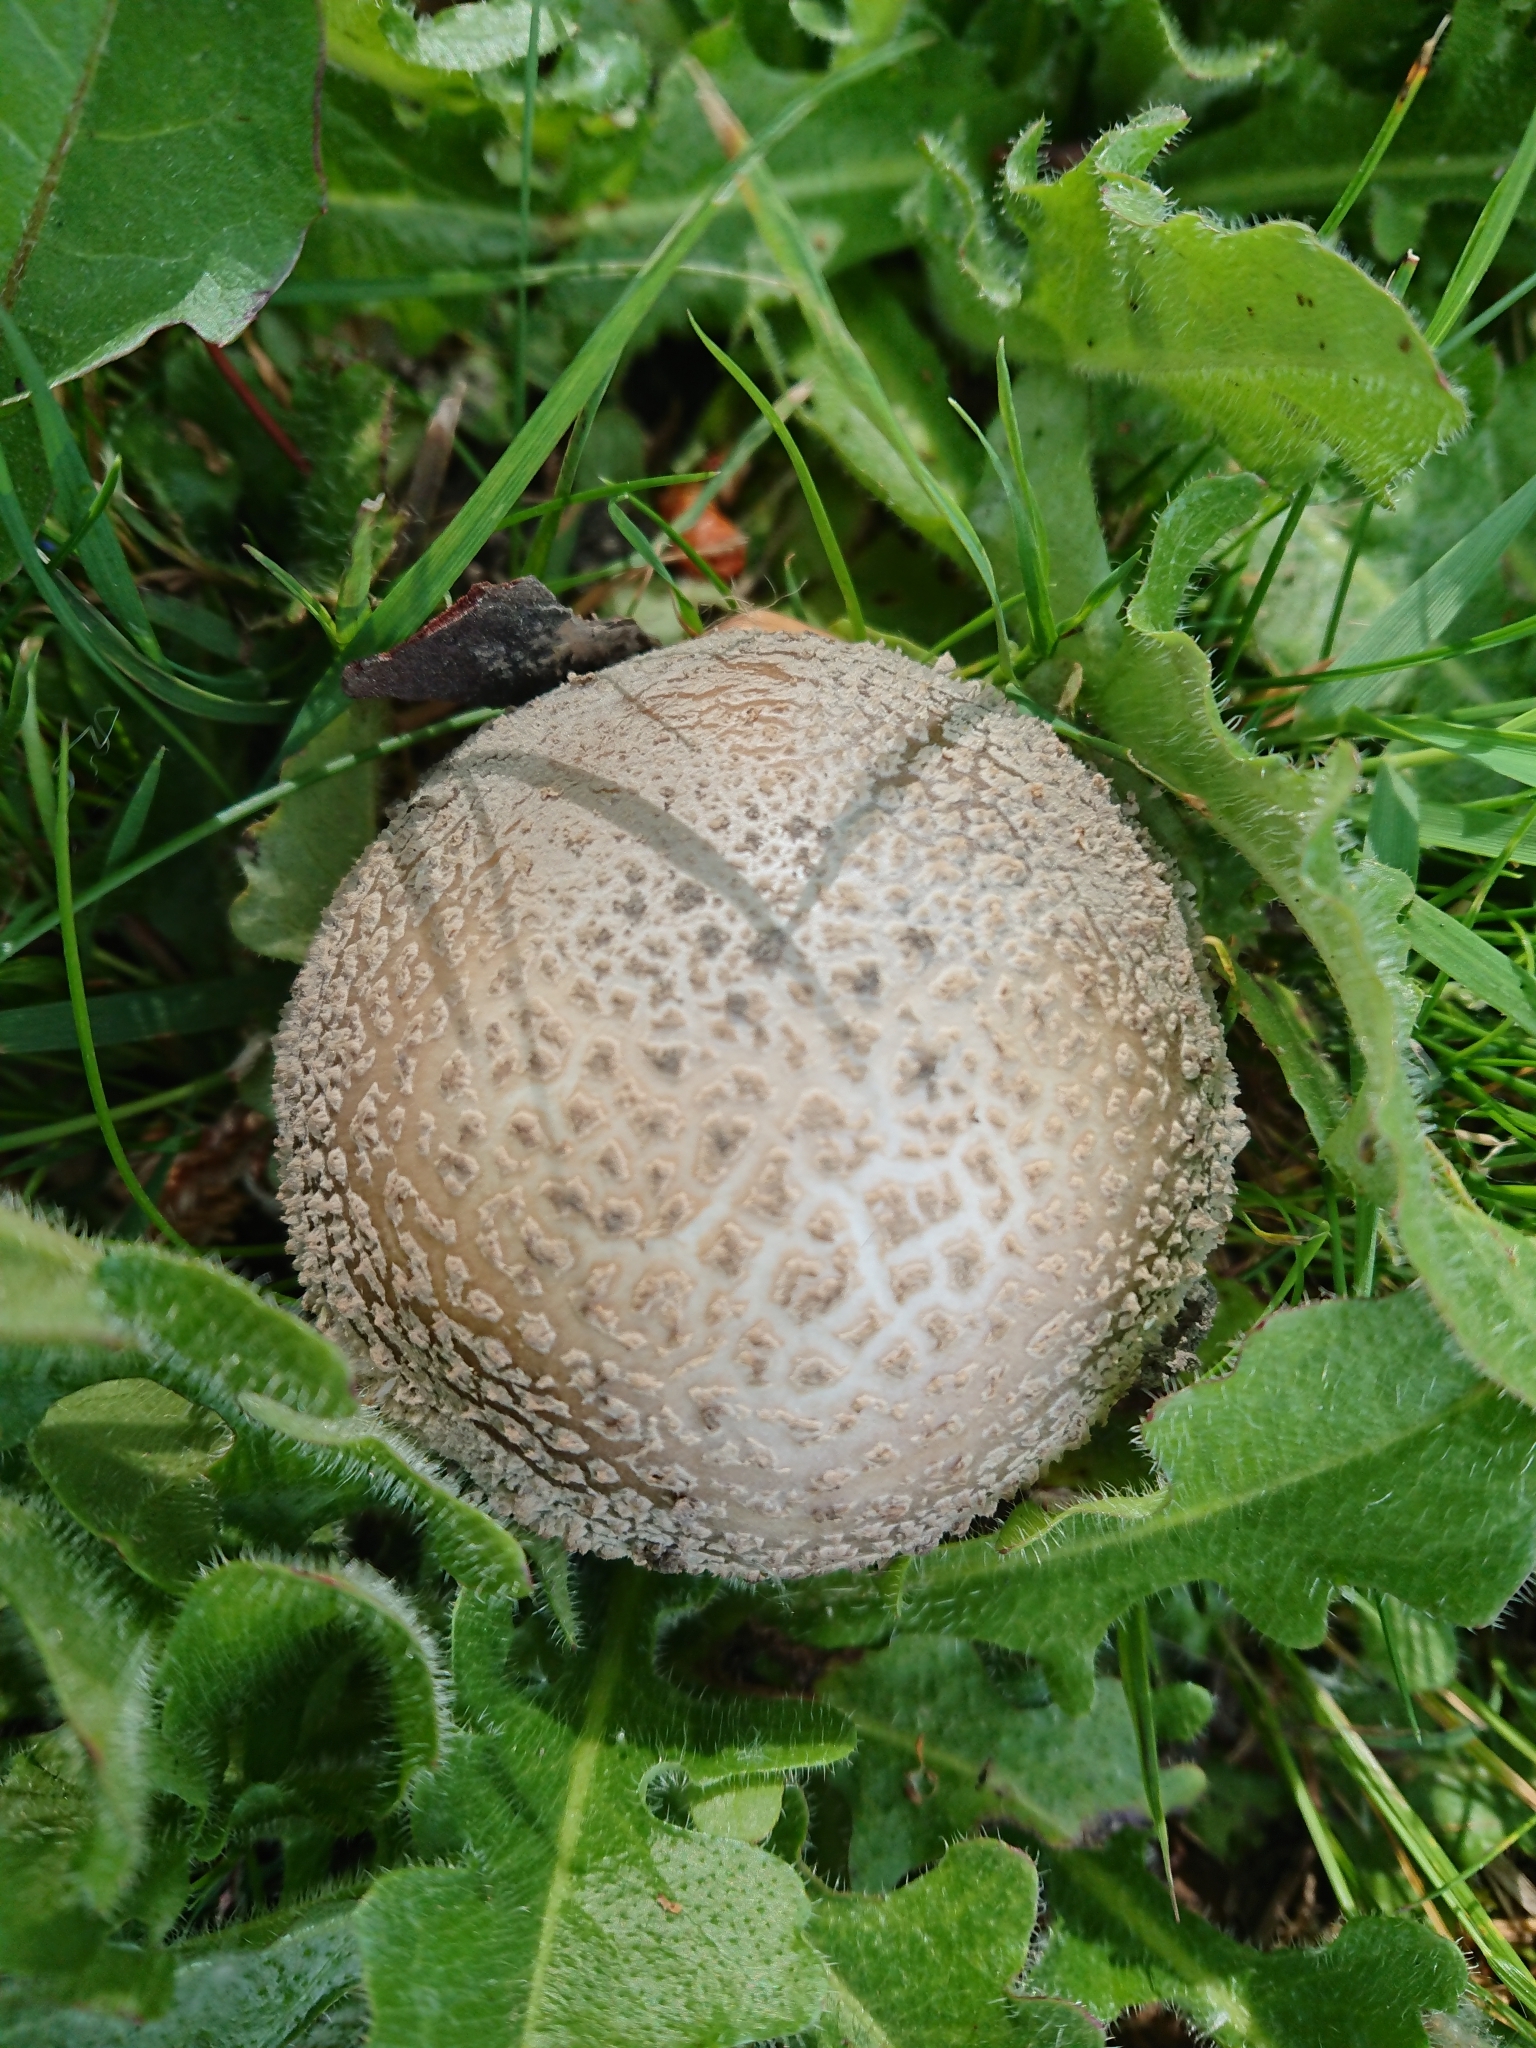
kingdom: Fungi
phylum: Basidiomycota
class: Agaricomycetes
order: Agaricales
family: Amanitaceae
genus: Amanita
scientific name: Amanita excelsa
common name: European false blusher
